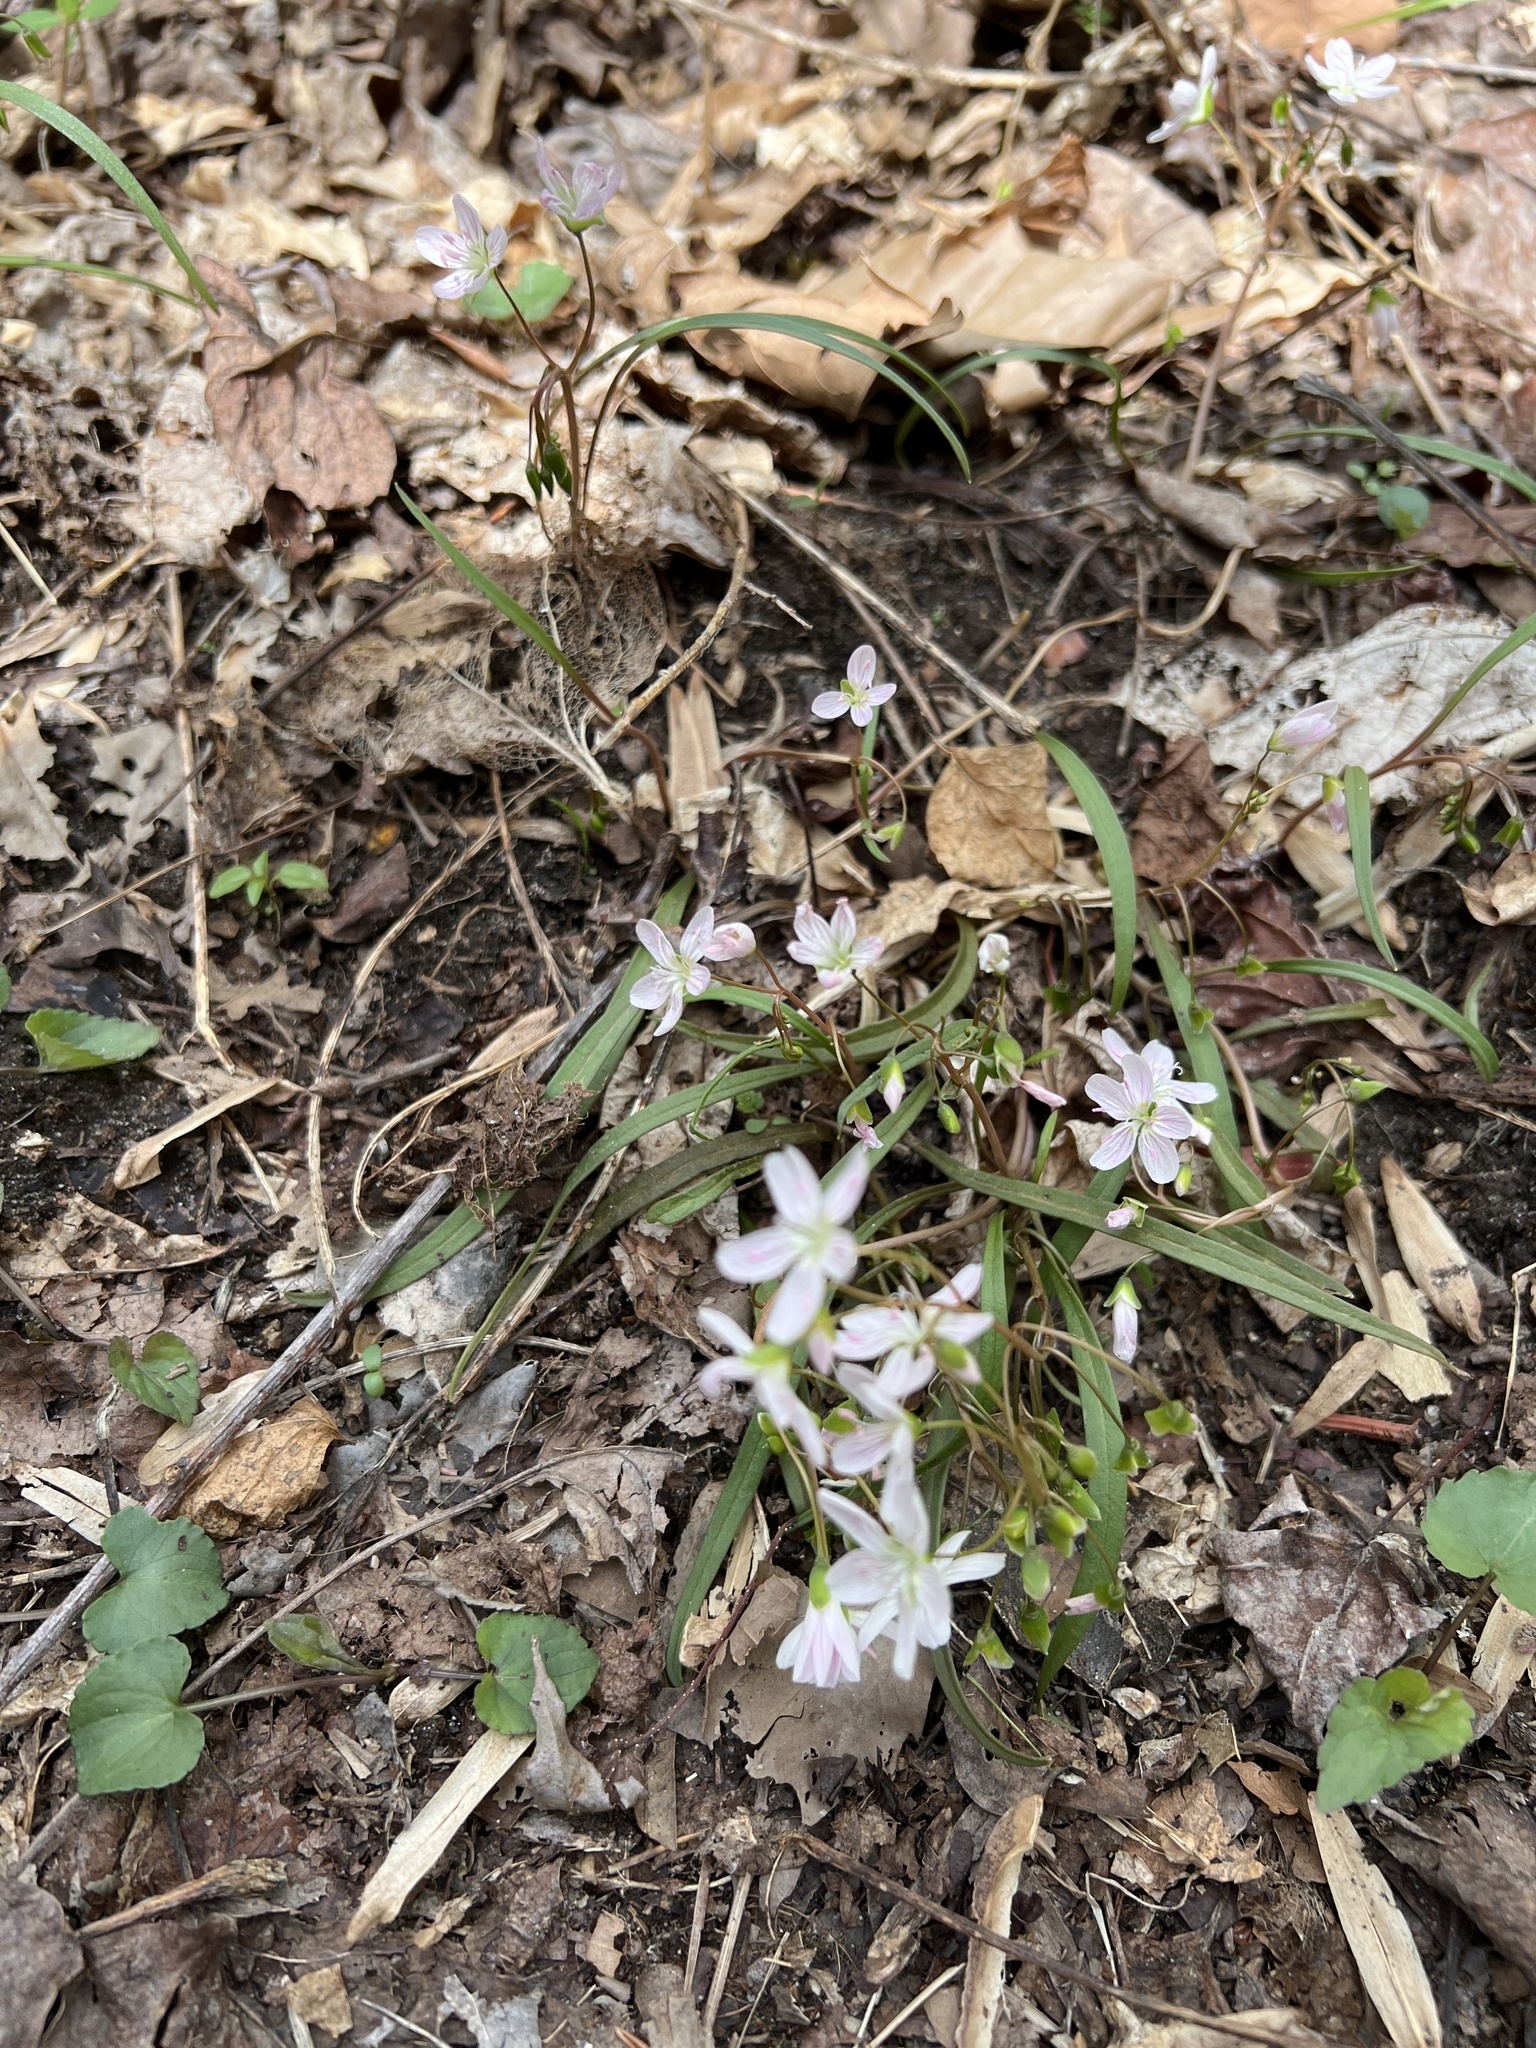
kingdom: Plantae
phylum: Tracheophyta
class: Magnoliopsida
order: Caryophyllales
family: Montiaceae
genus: Claytonia
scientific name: Claytonia virginica
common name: Virginia springbeauty
